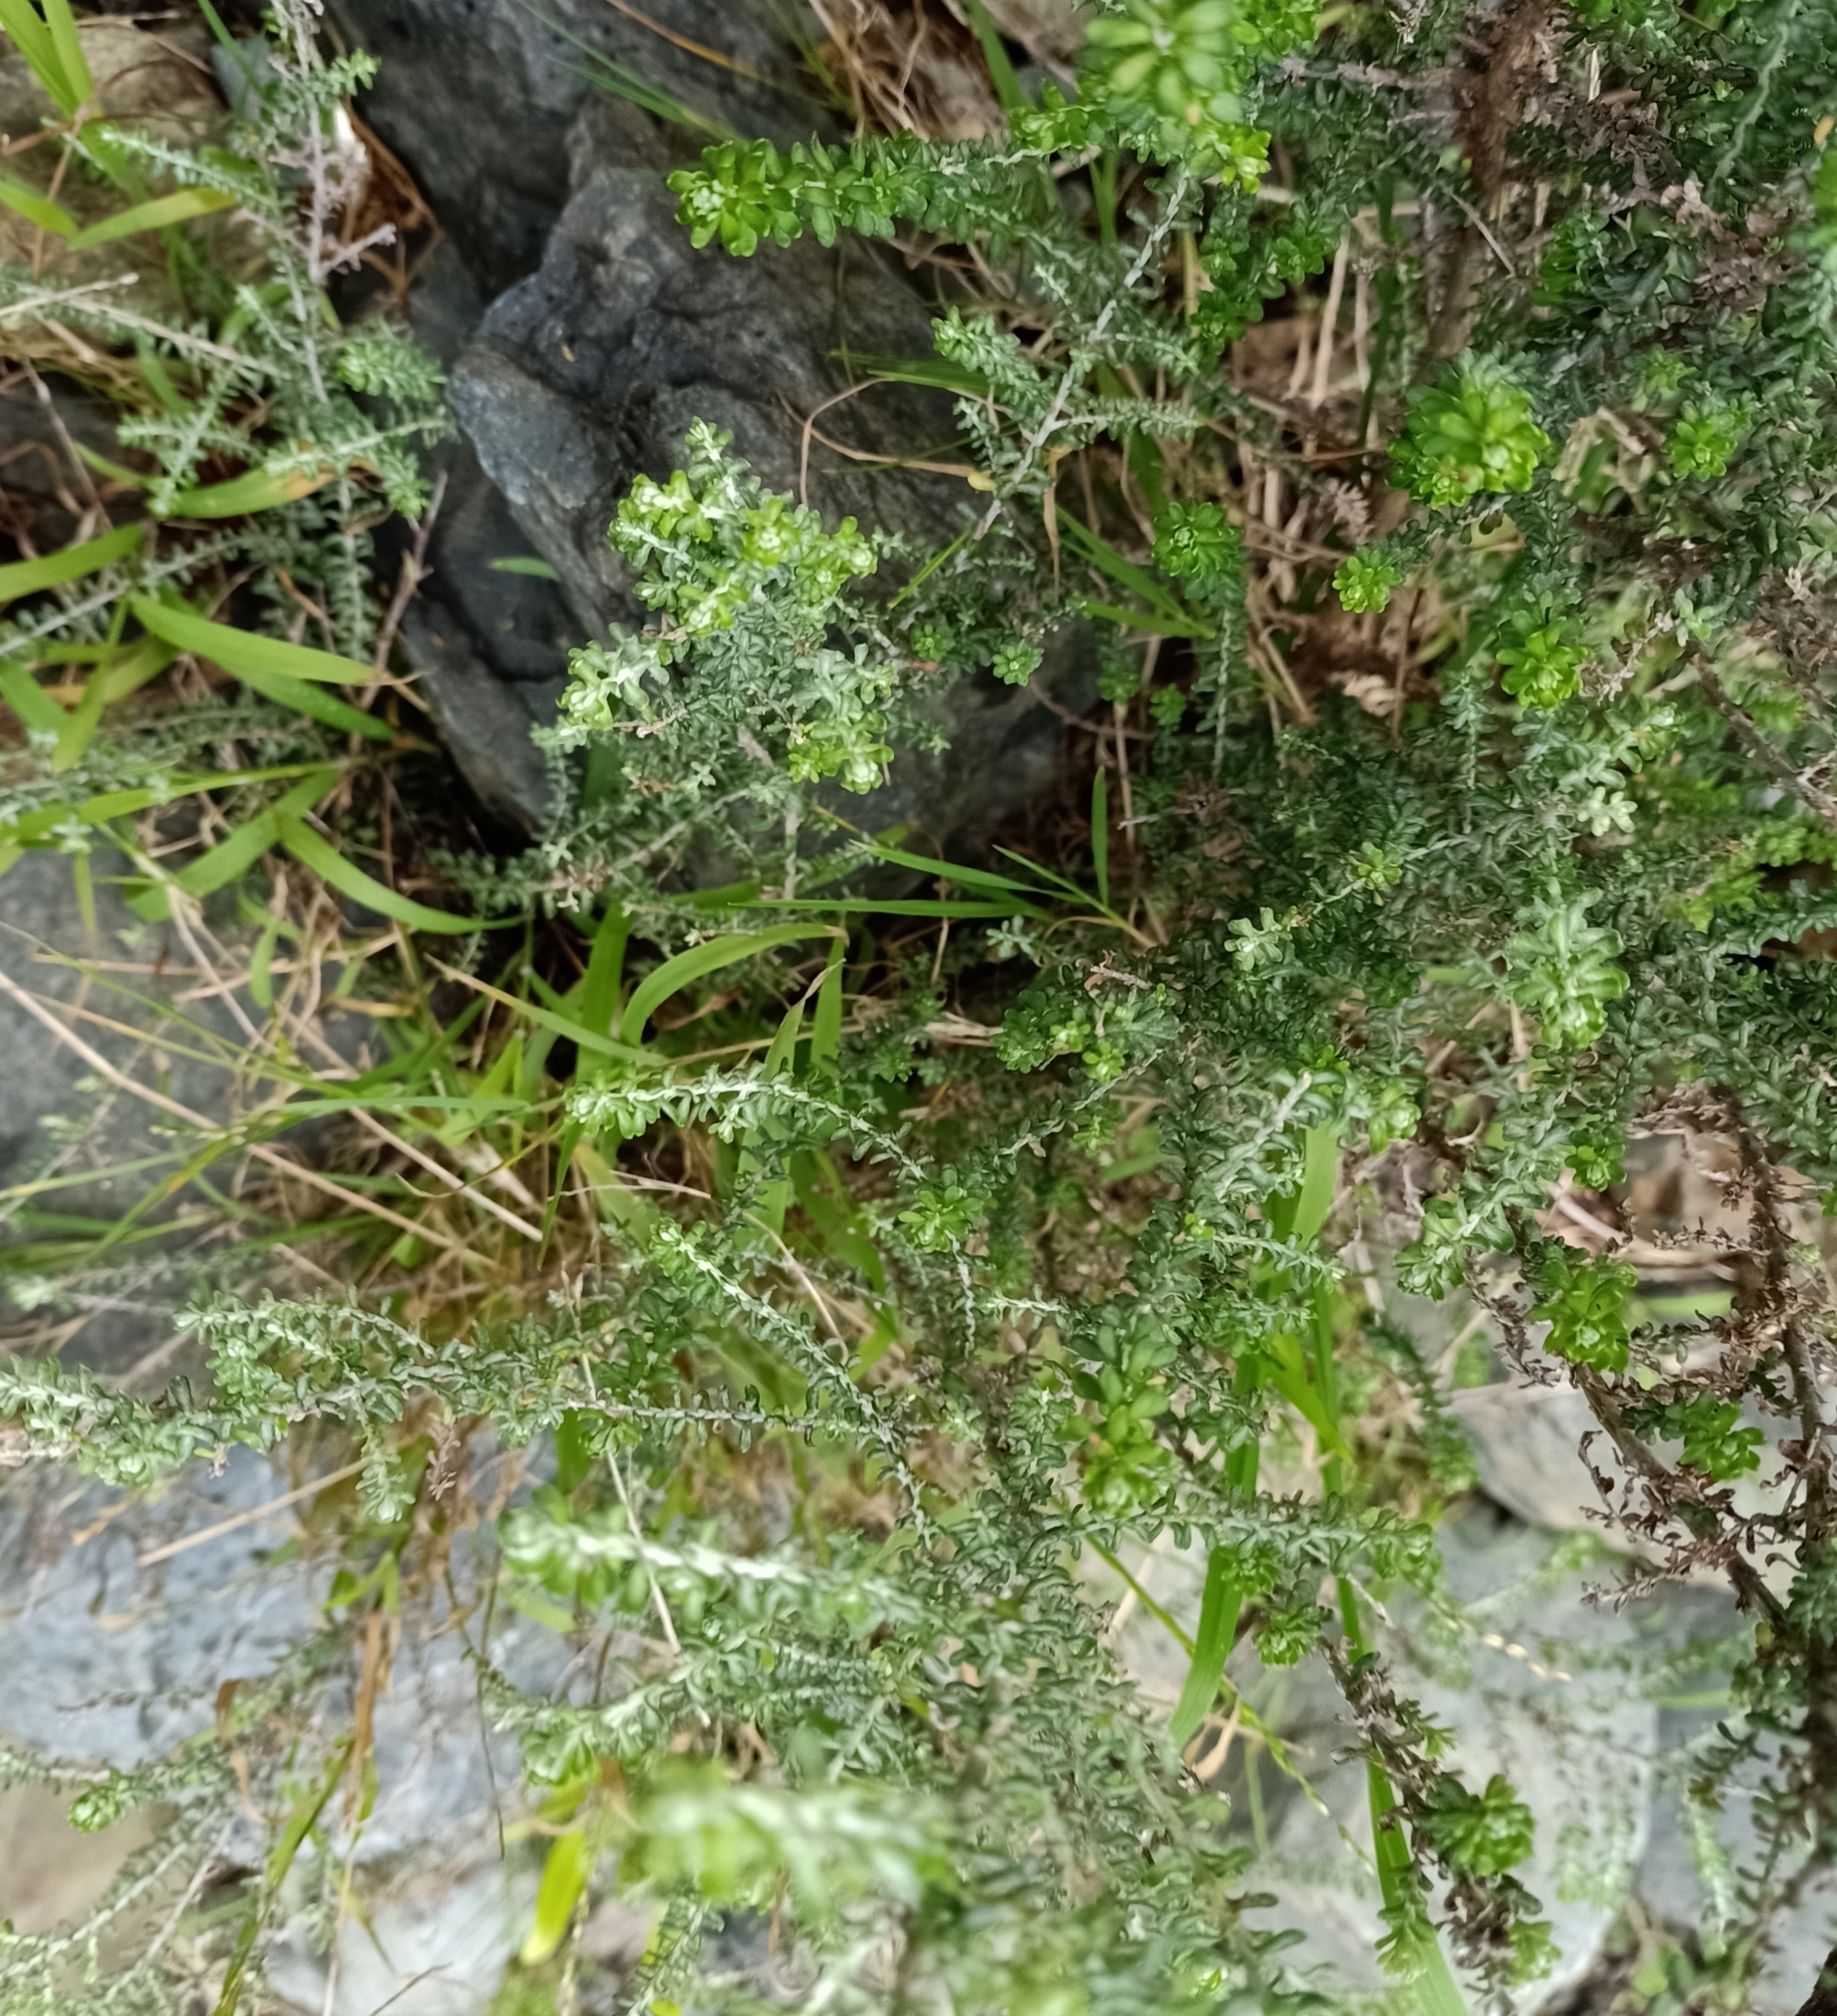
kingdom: Plantae
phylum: Tracheophyta
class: Magnoliopsida
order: Asterales
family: Asteraceae
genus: Ozothamnus
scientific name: Ozothamnus leptophyllus
